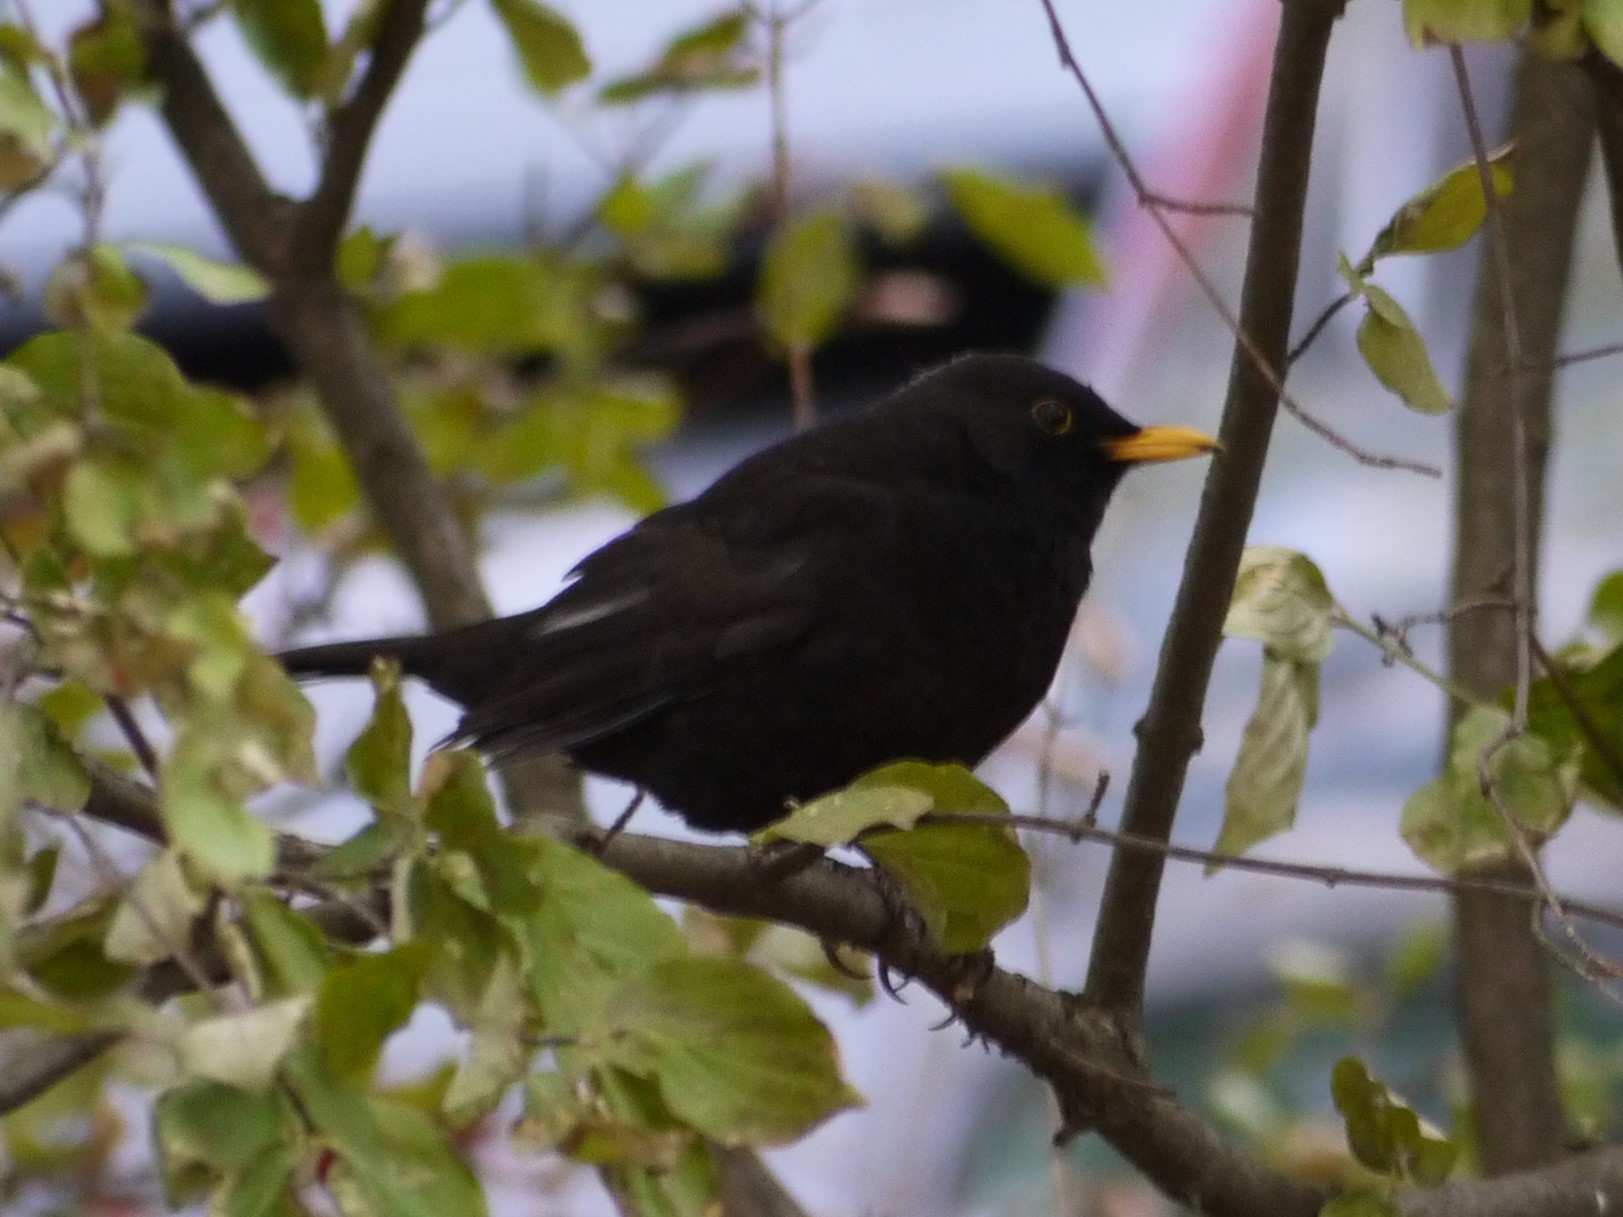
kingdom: Animalia
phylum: Chordata
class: Aves
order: Passeriformes
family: Turdidae
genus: Turdus
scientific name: Turdus merula
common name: Common blackbird
